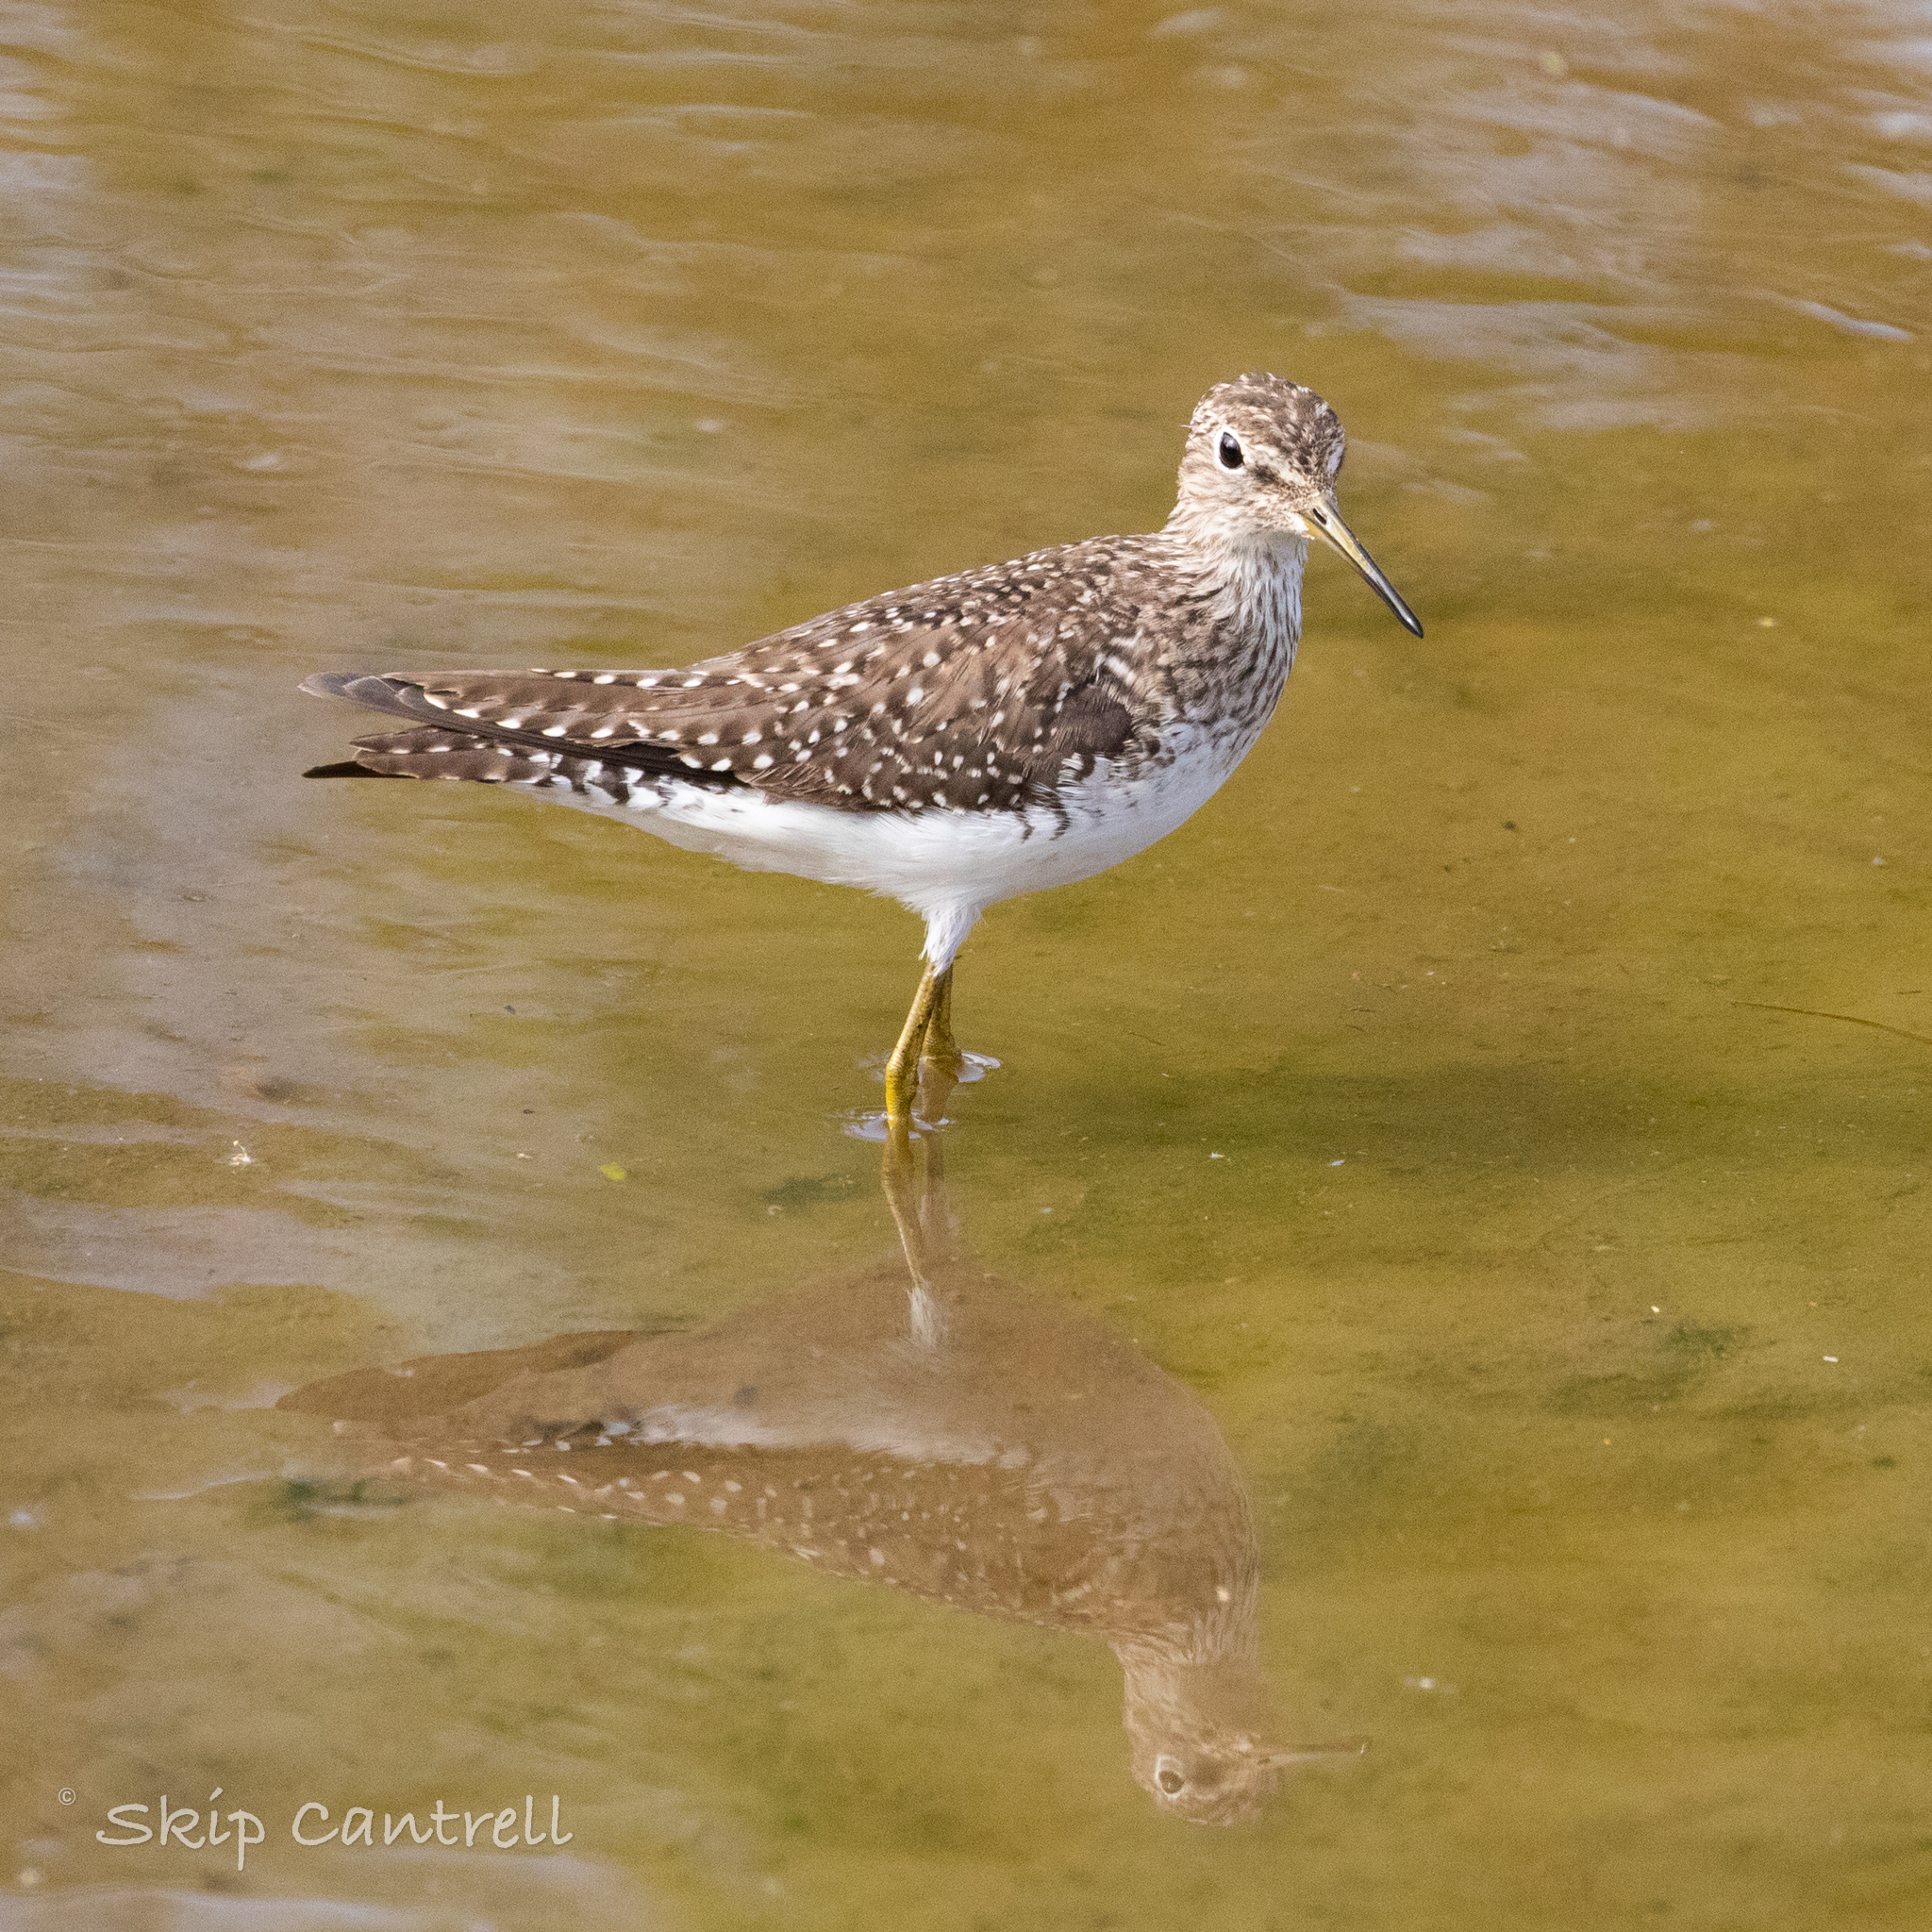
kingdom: Animalia
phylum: Chordata
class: Aves
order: Charadriiformes
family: Scolopacidae
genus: Tringa
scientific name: Tringa solitaria
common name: Solitary sandpiper
